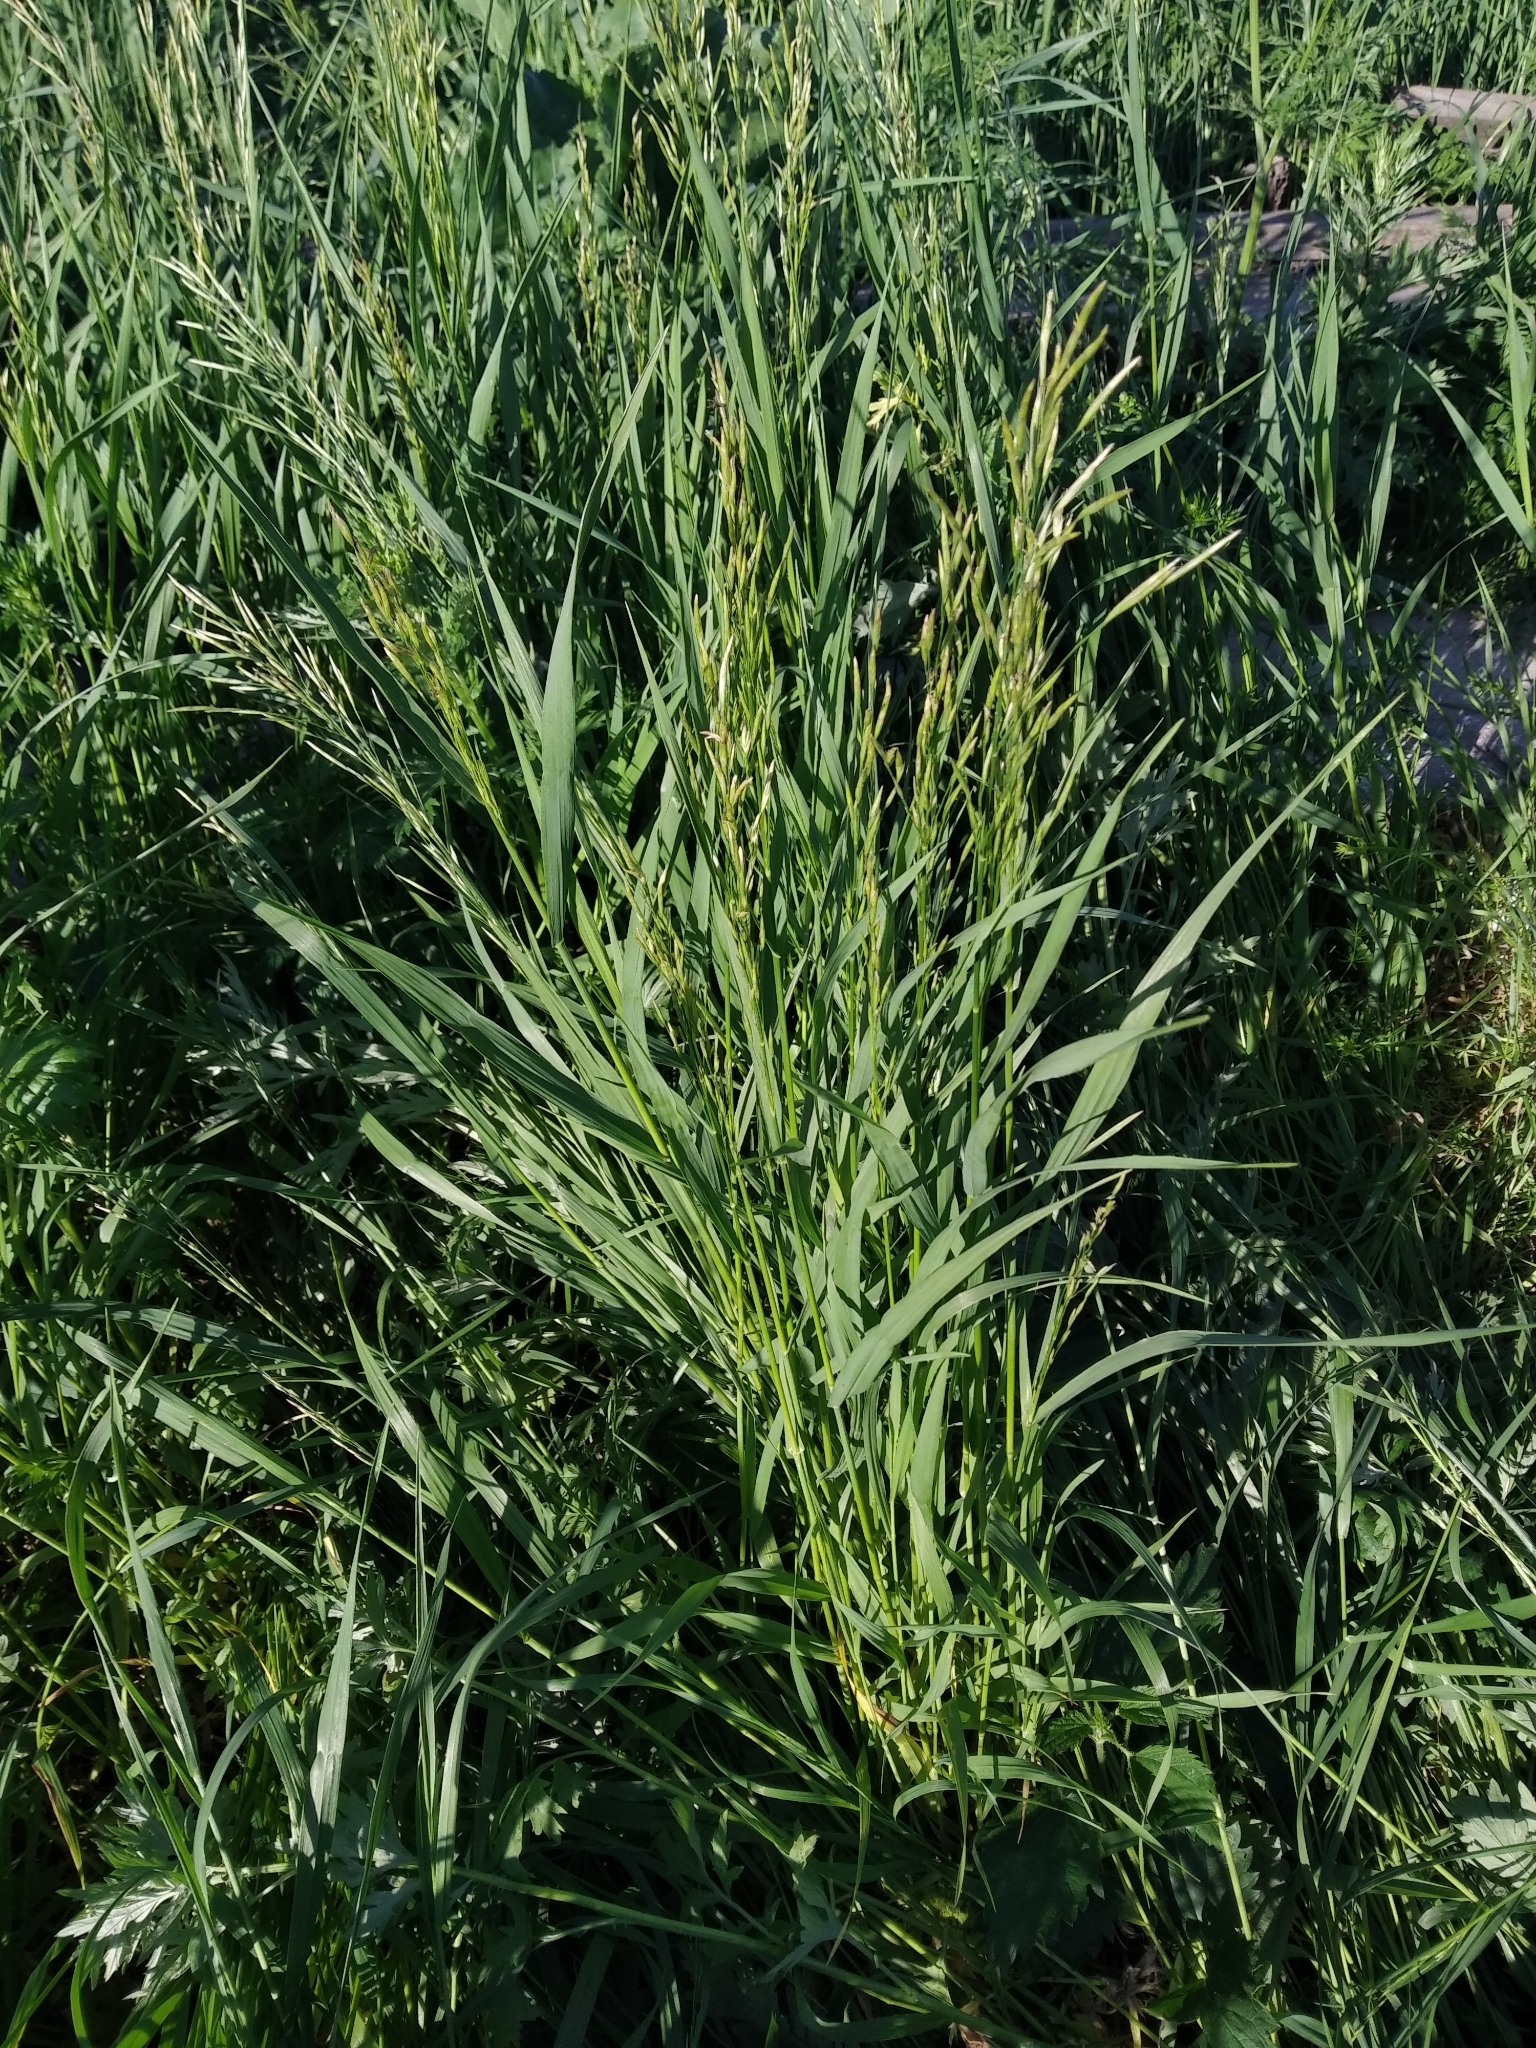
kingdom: Plantae
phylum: Tracheophyta
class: Liliopsida
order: Poales
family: Poaceae
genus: Bromus
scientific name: Bromus inermis
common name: Smooth brome
